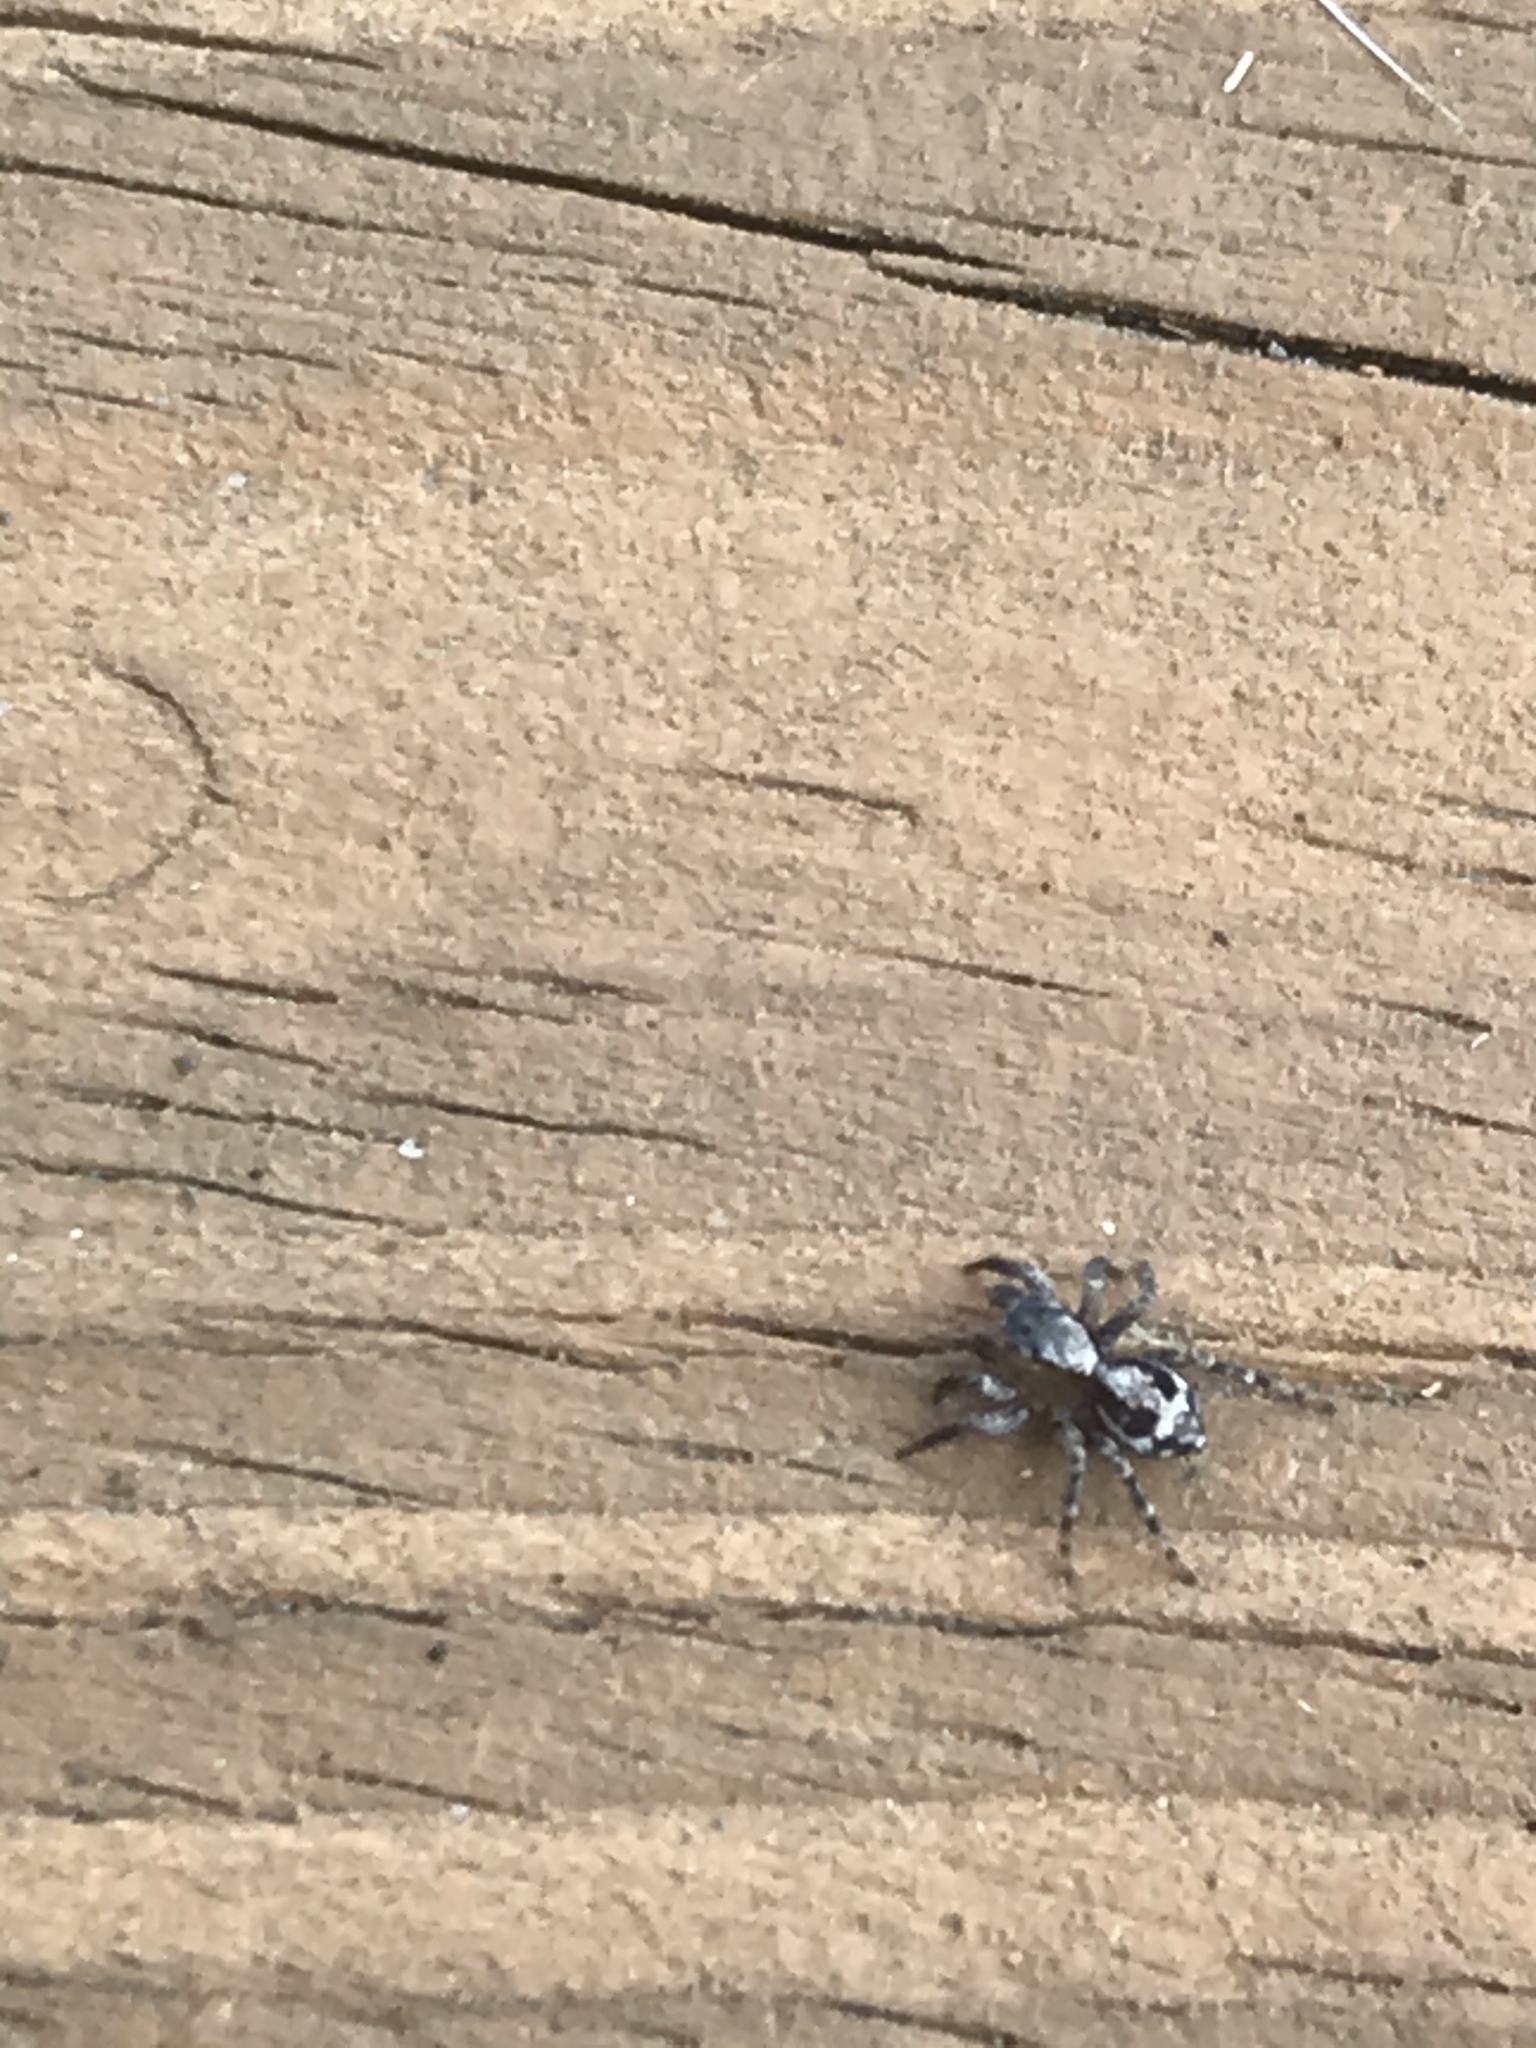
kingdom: Animalia
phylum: Arthropoda
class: Arachnida
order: Araneae
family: Salticidae
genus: Naphrys
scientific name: Naphrys pulex
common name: Flea jumping spider
